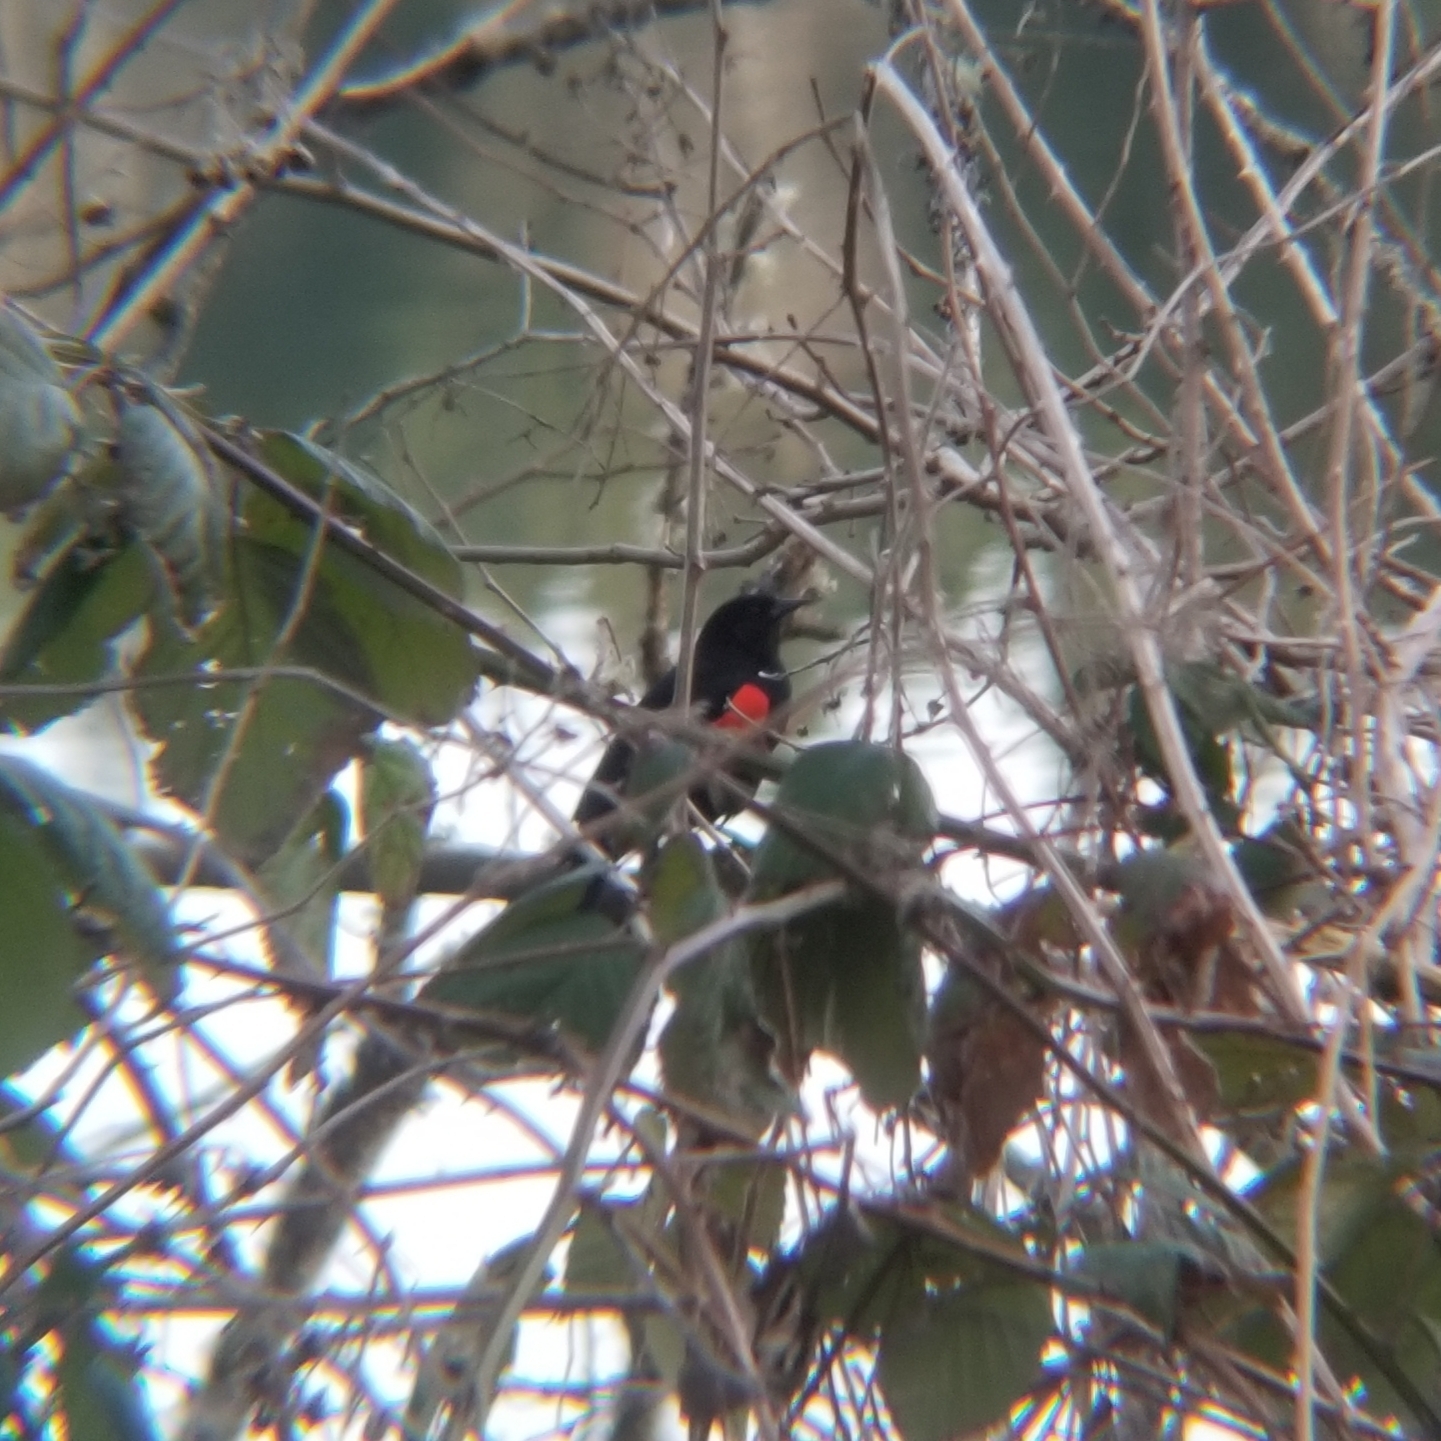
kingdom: Animalia
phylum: Chordata
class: Aves
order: Passeriformes
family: Icteridae
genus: Agelaius
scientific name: Agelaius phoeniceus
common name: Red-winged blackbird
